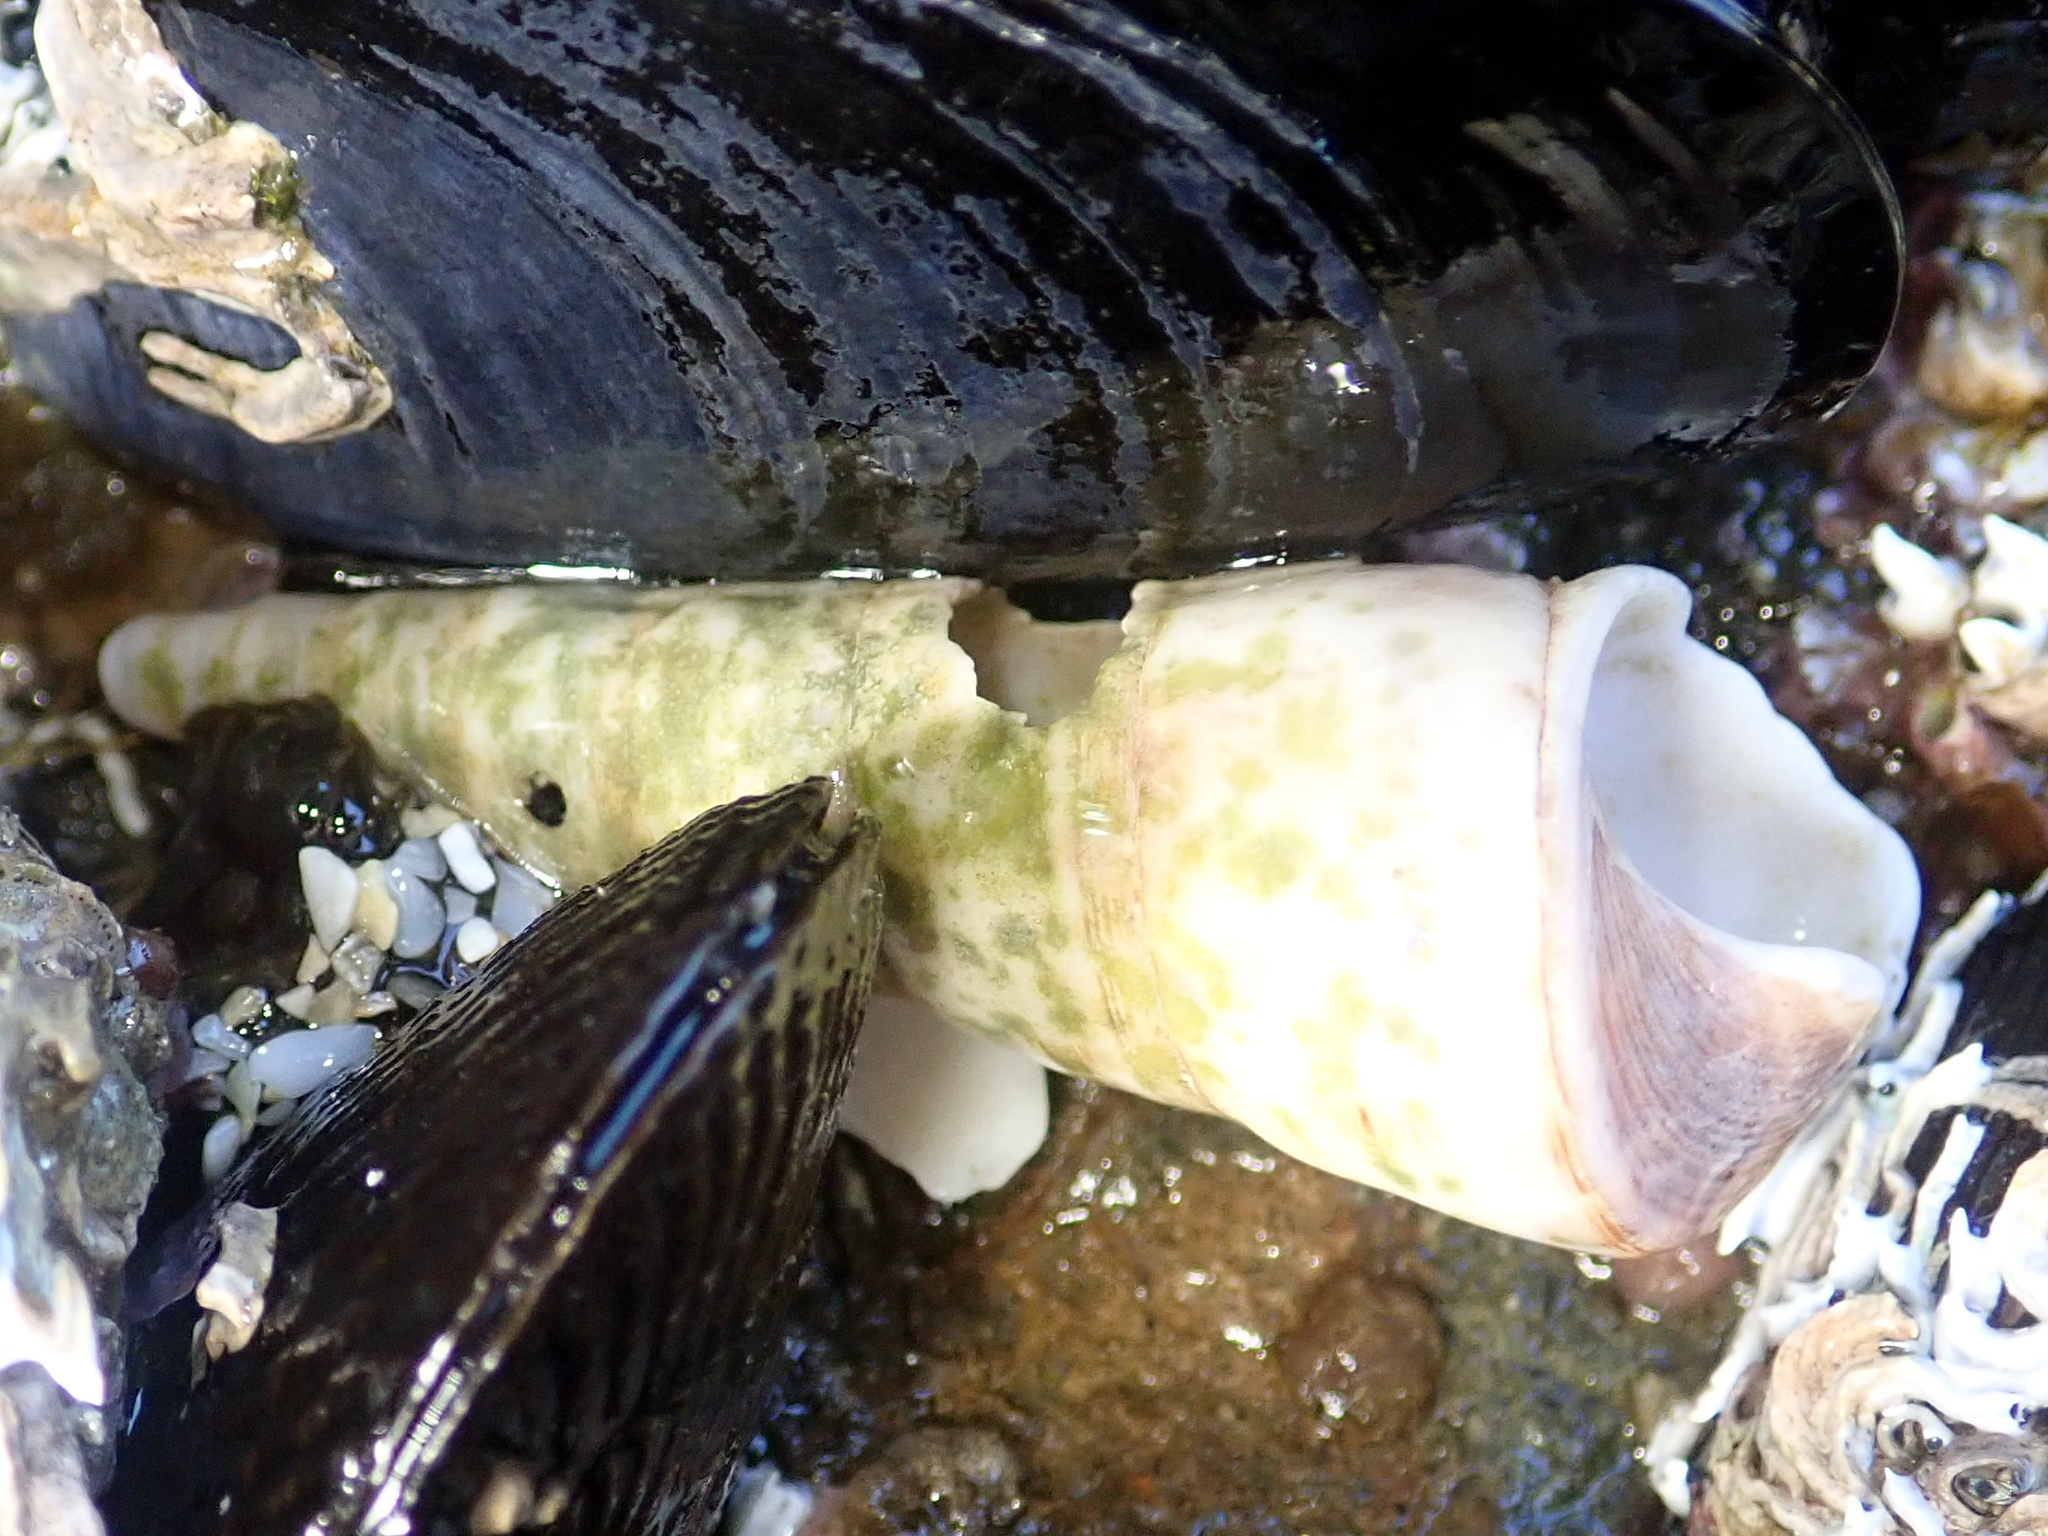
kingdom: Animalia
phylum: Mollusca
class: Gastropoda
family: Turritellidae
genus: Maoricolpus
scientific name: Maoricolpus roseus
